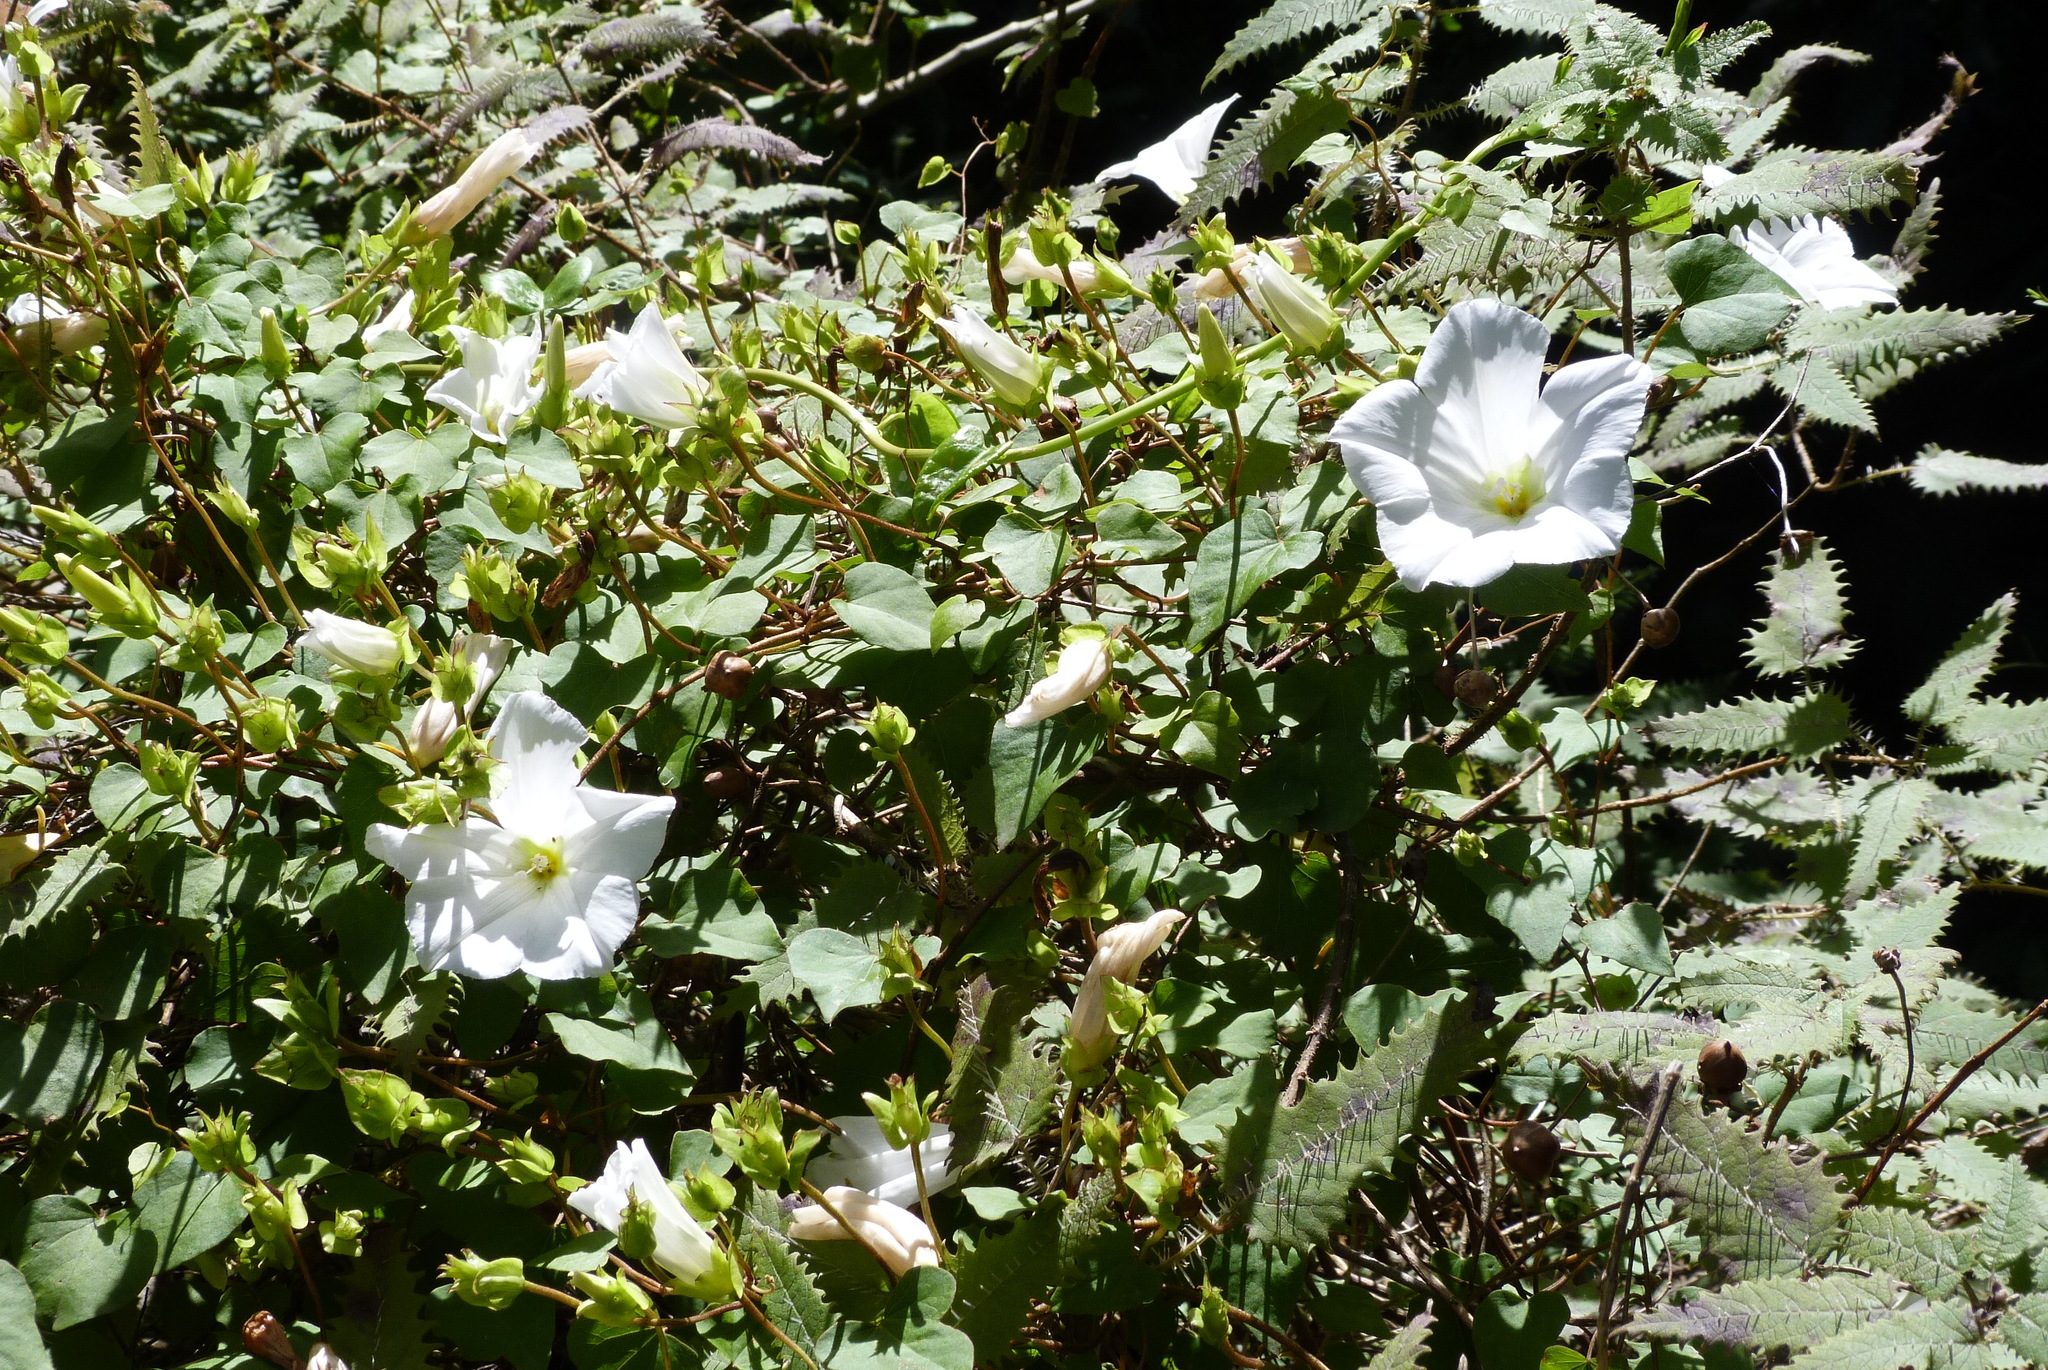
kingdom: Plantae
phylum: Tracheophyta
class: Magnoliopsida
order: Solanales
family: Convolvulaceae
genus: Calystegia
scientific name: Calystegia tuguriorum
